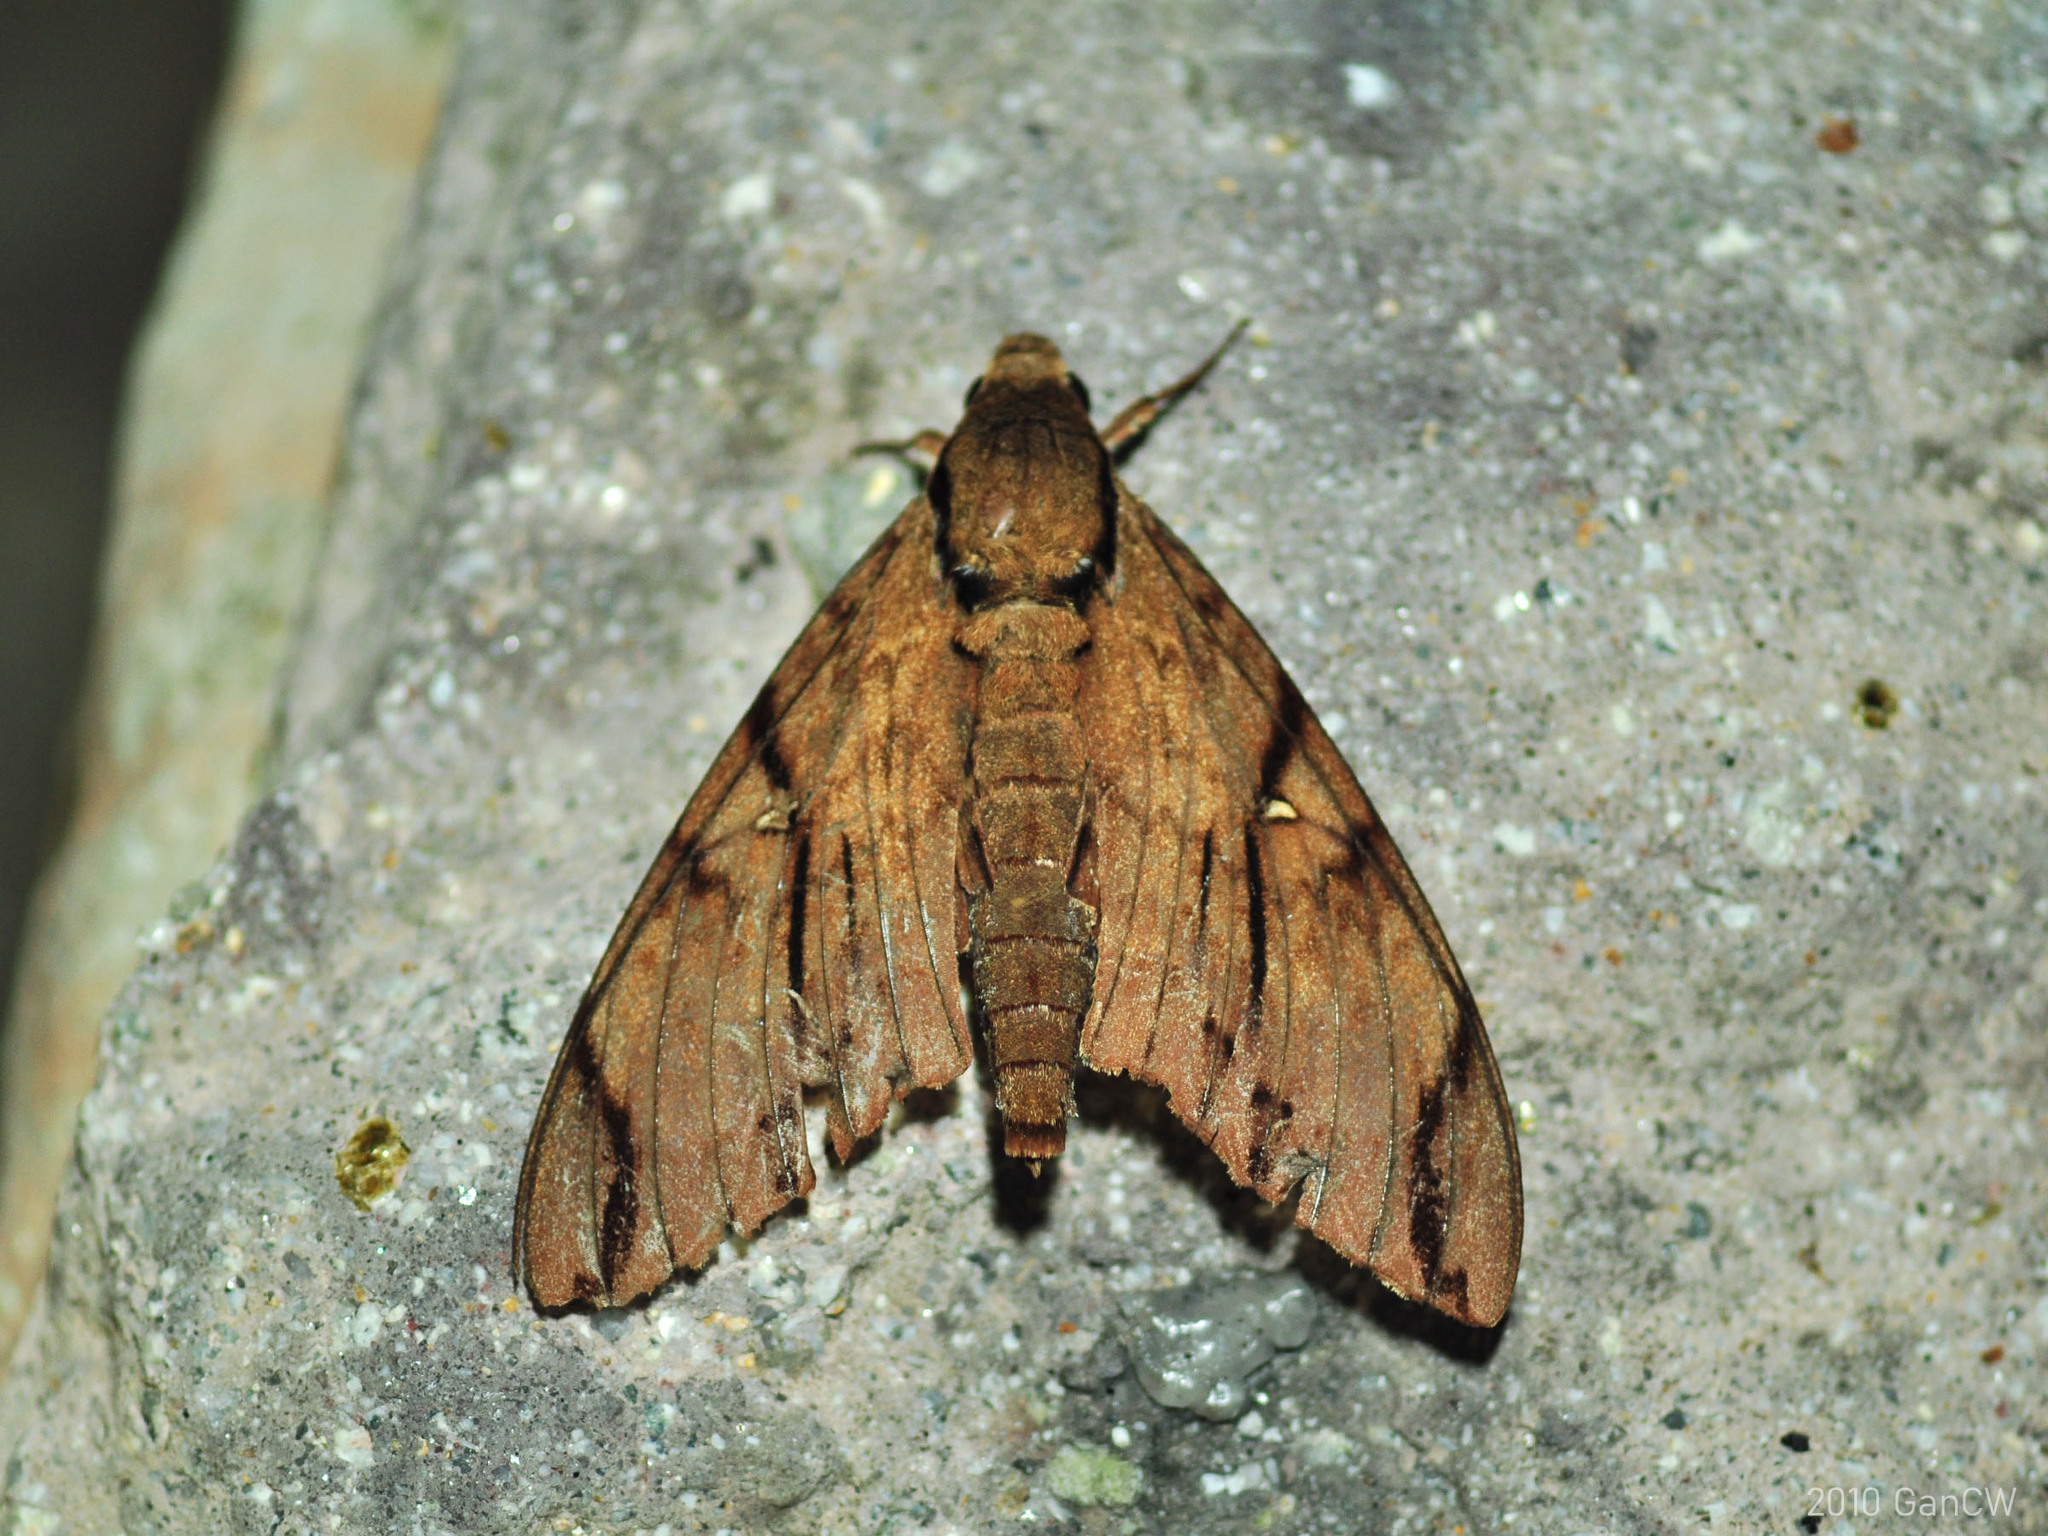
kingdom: Animalia
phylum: Arthropoda
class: Insecta
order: Lepidoptera
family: Sphingidae
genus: Cerberonoton
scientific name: Cerberonoton rubescens
